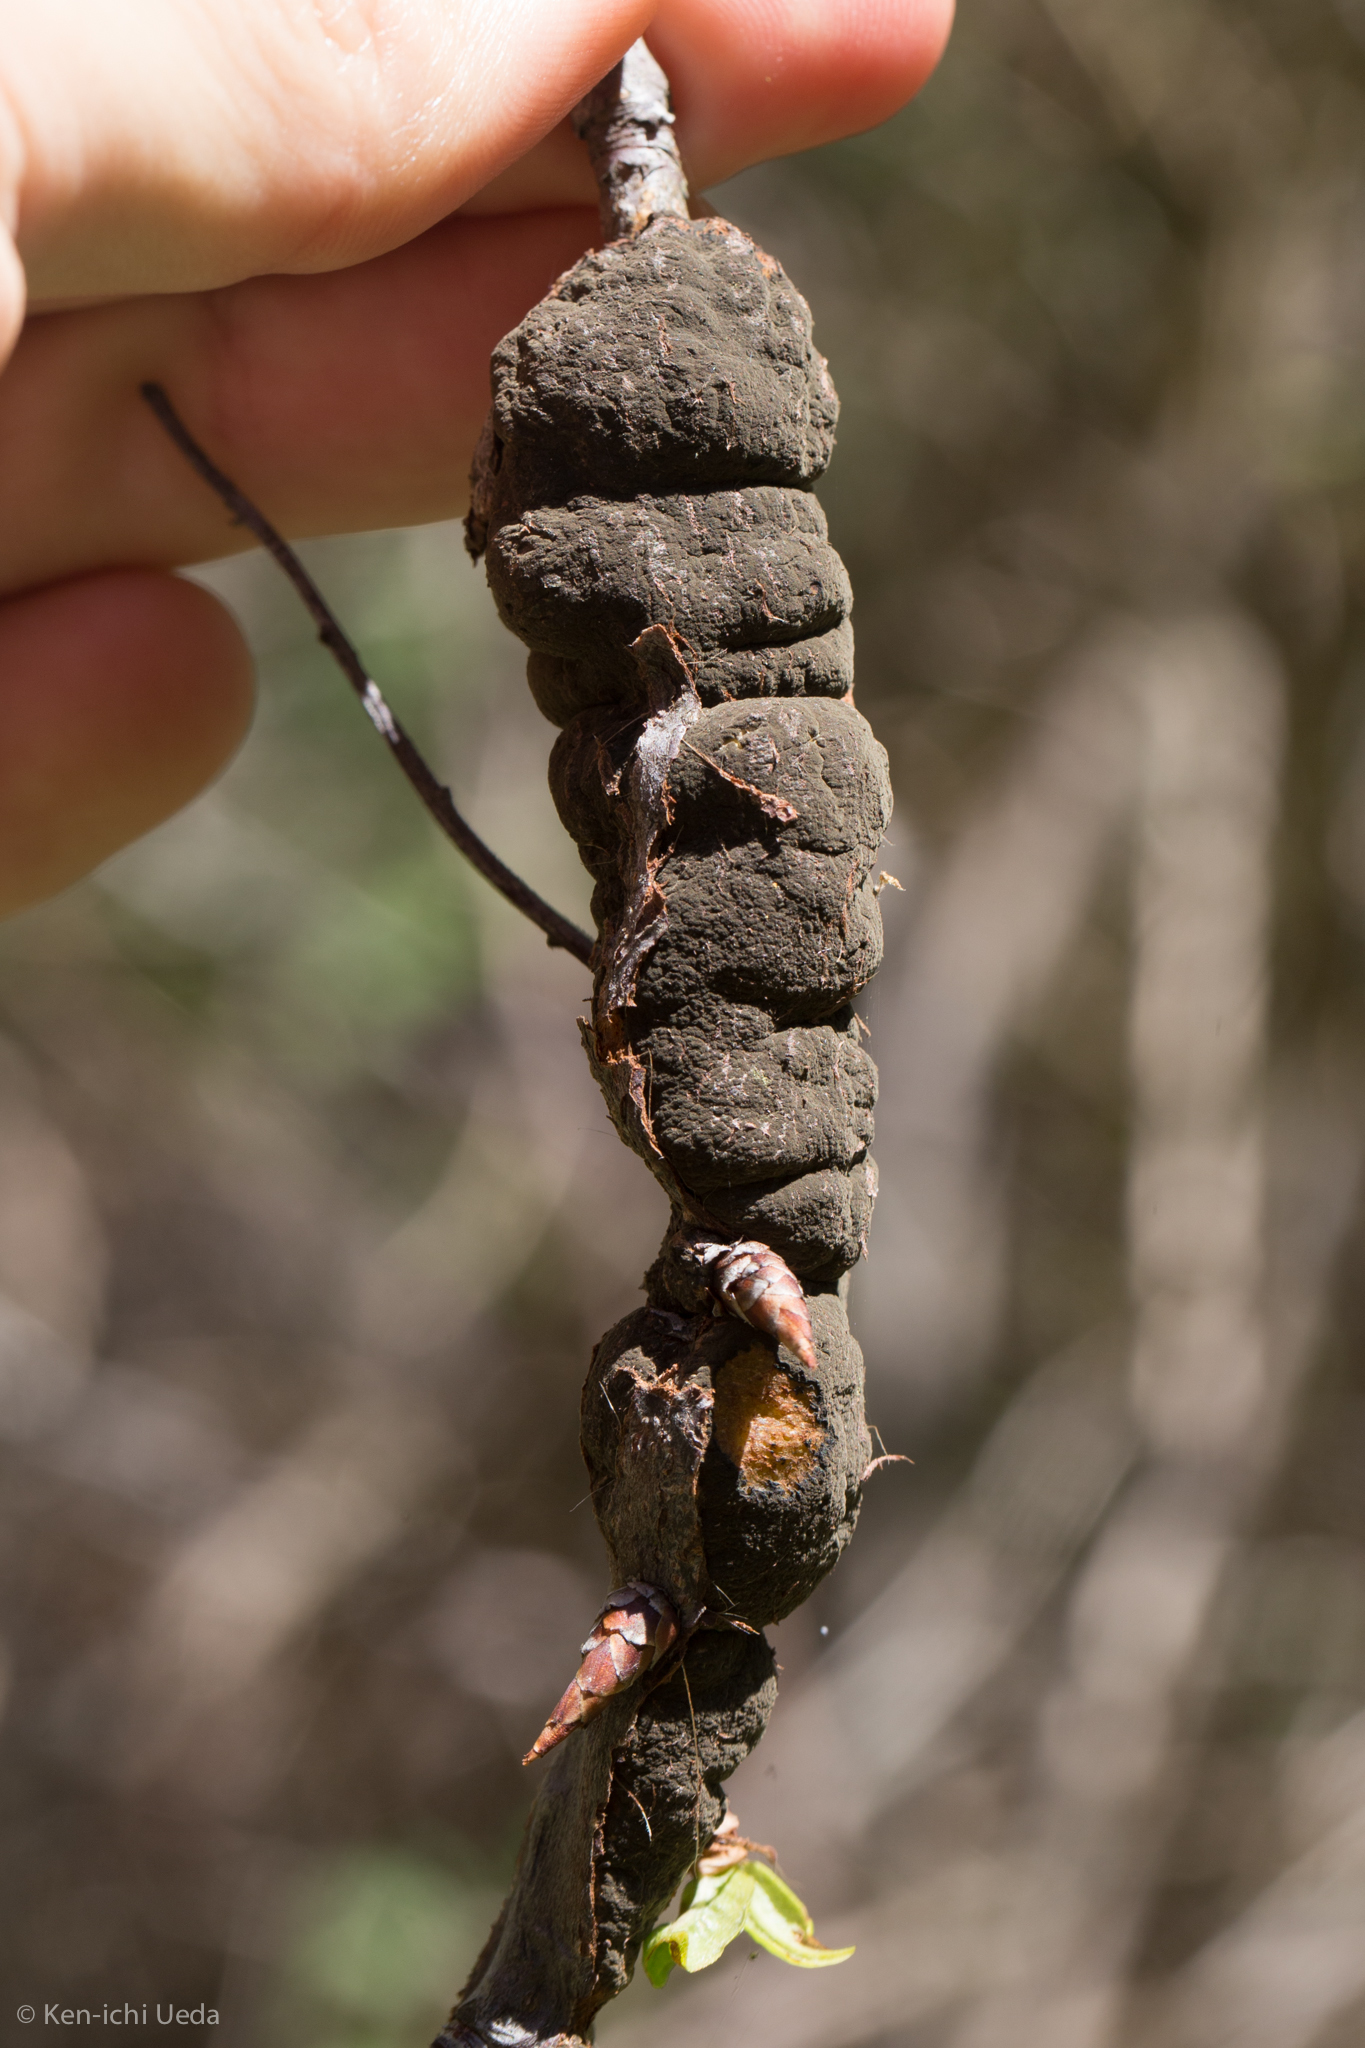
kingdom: Fungi
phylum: Ascomycota
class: Dothideomycetes
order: Venturiales
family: Venturiaceae
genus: Apiosporina
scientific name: Apiosporina morbosa
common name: Black knot
